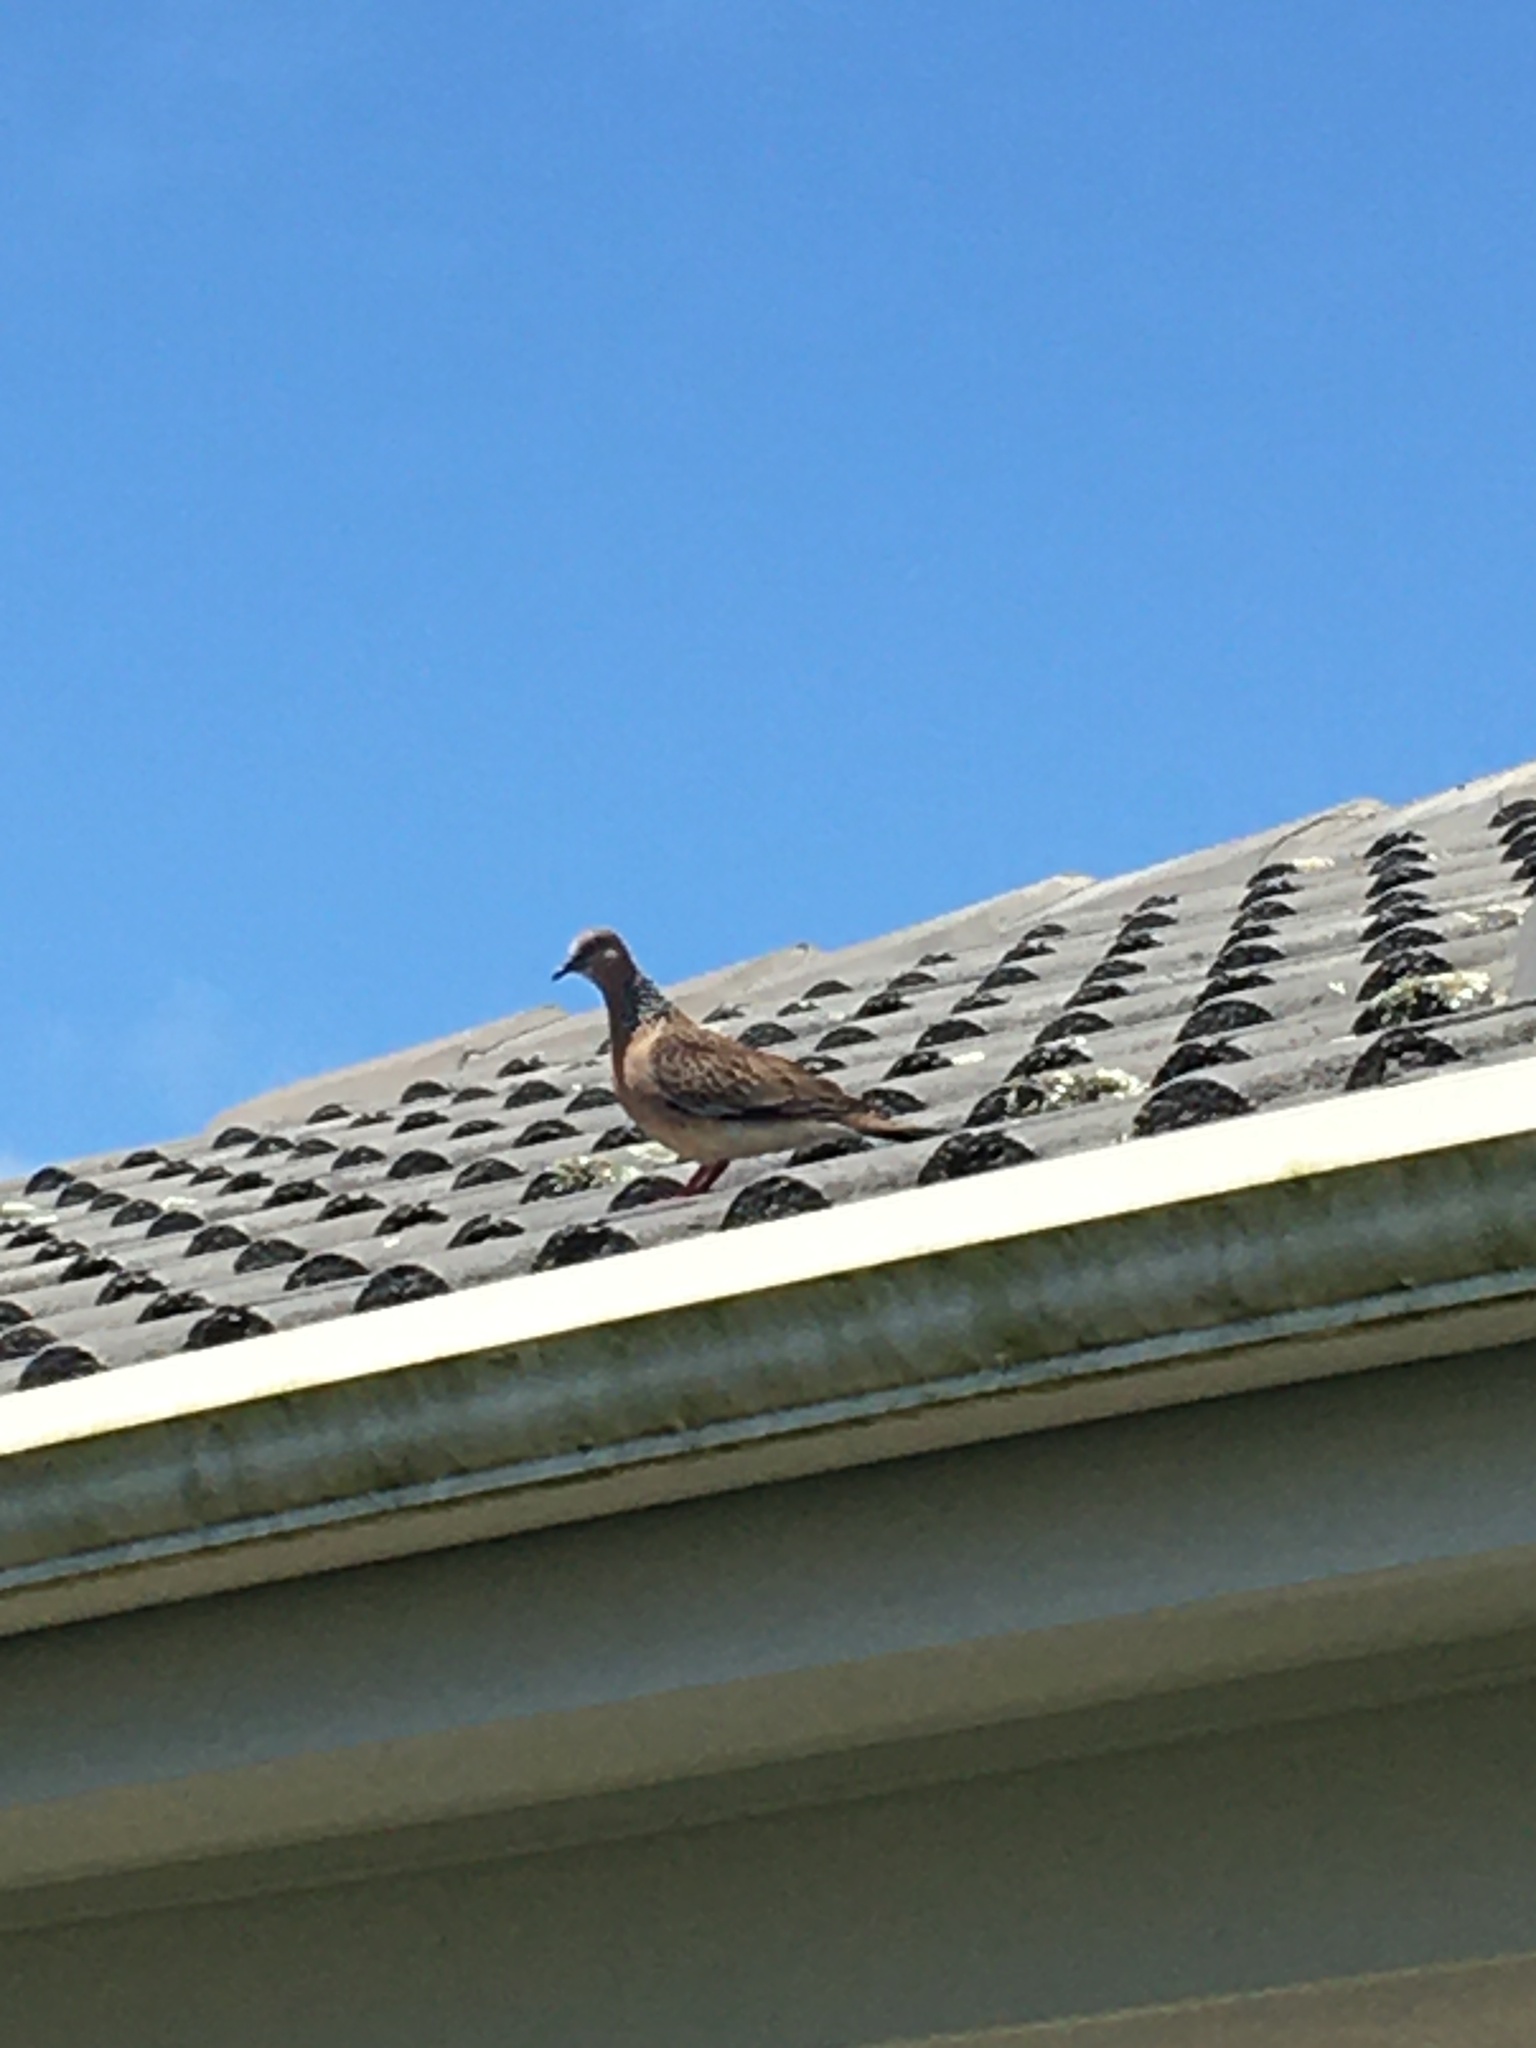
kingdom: Animalia
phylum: Chordata
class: Aves
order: Columbiformes
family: Columbidae
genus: Spilopelia
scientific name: Spilopelia chinensis
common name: Spotted dove
